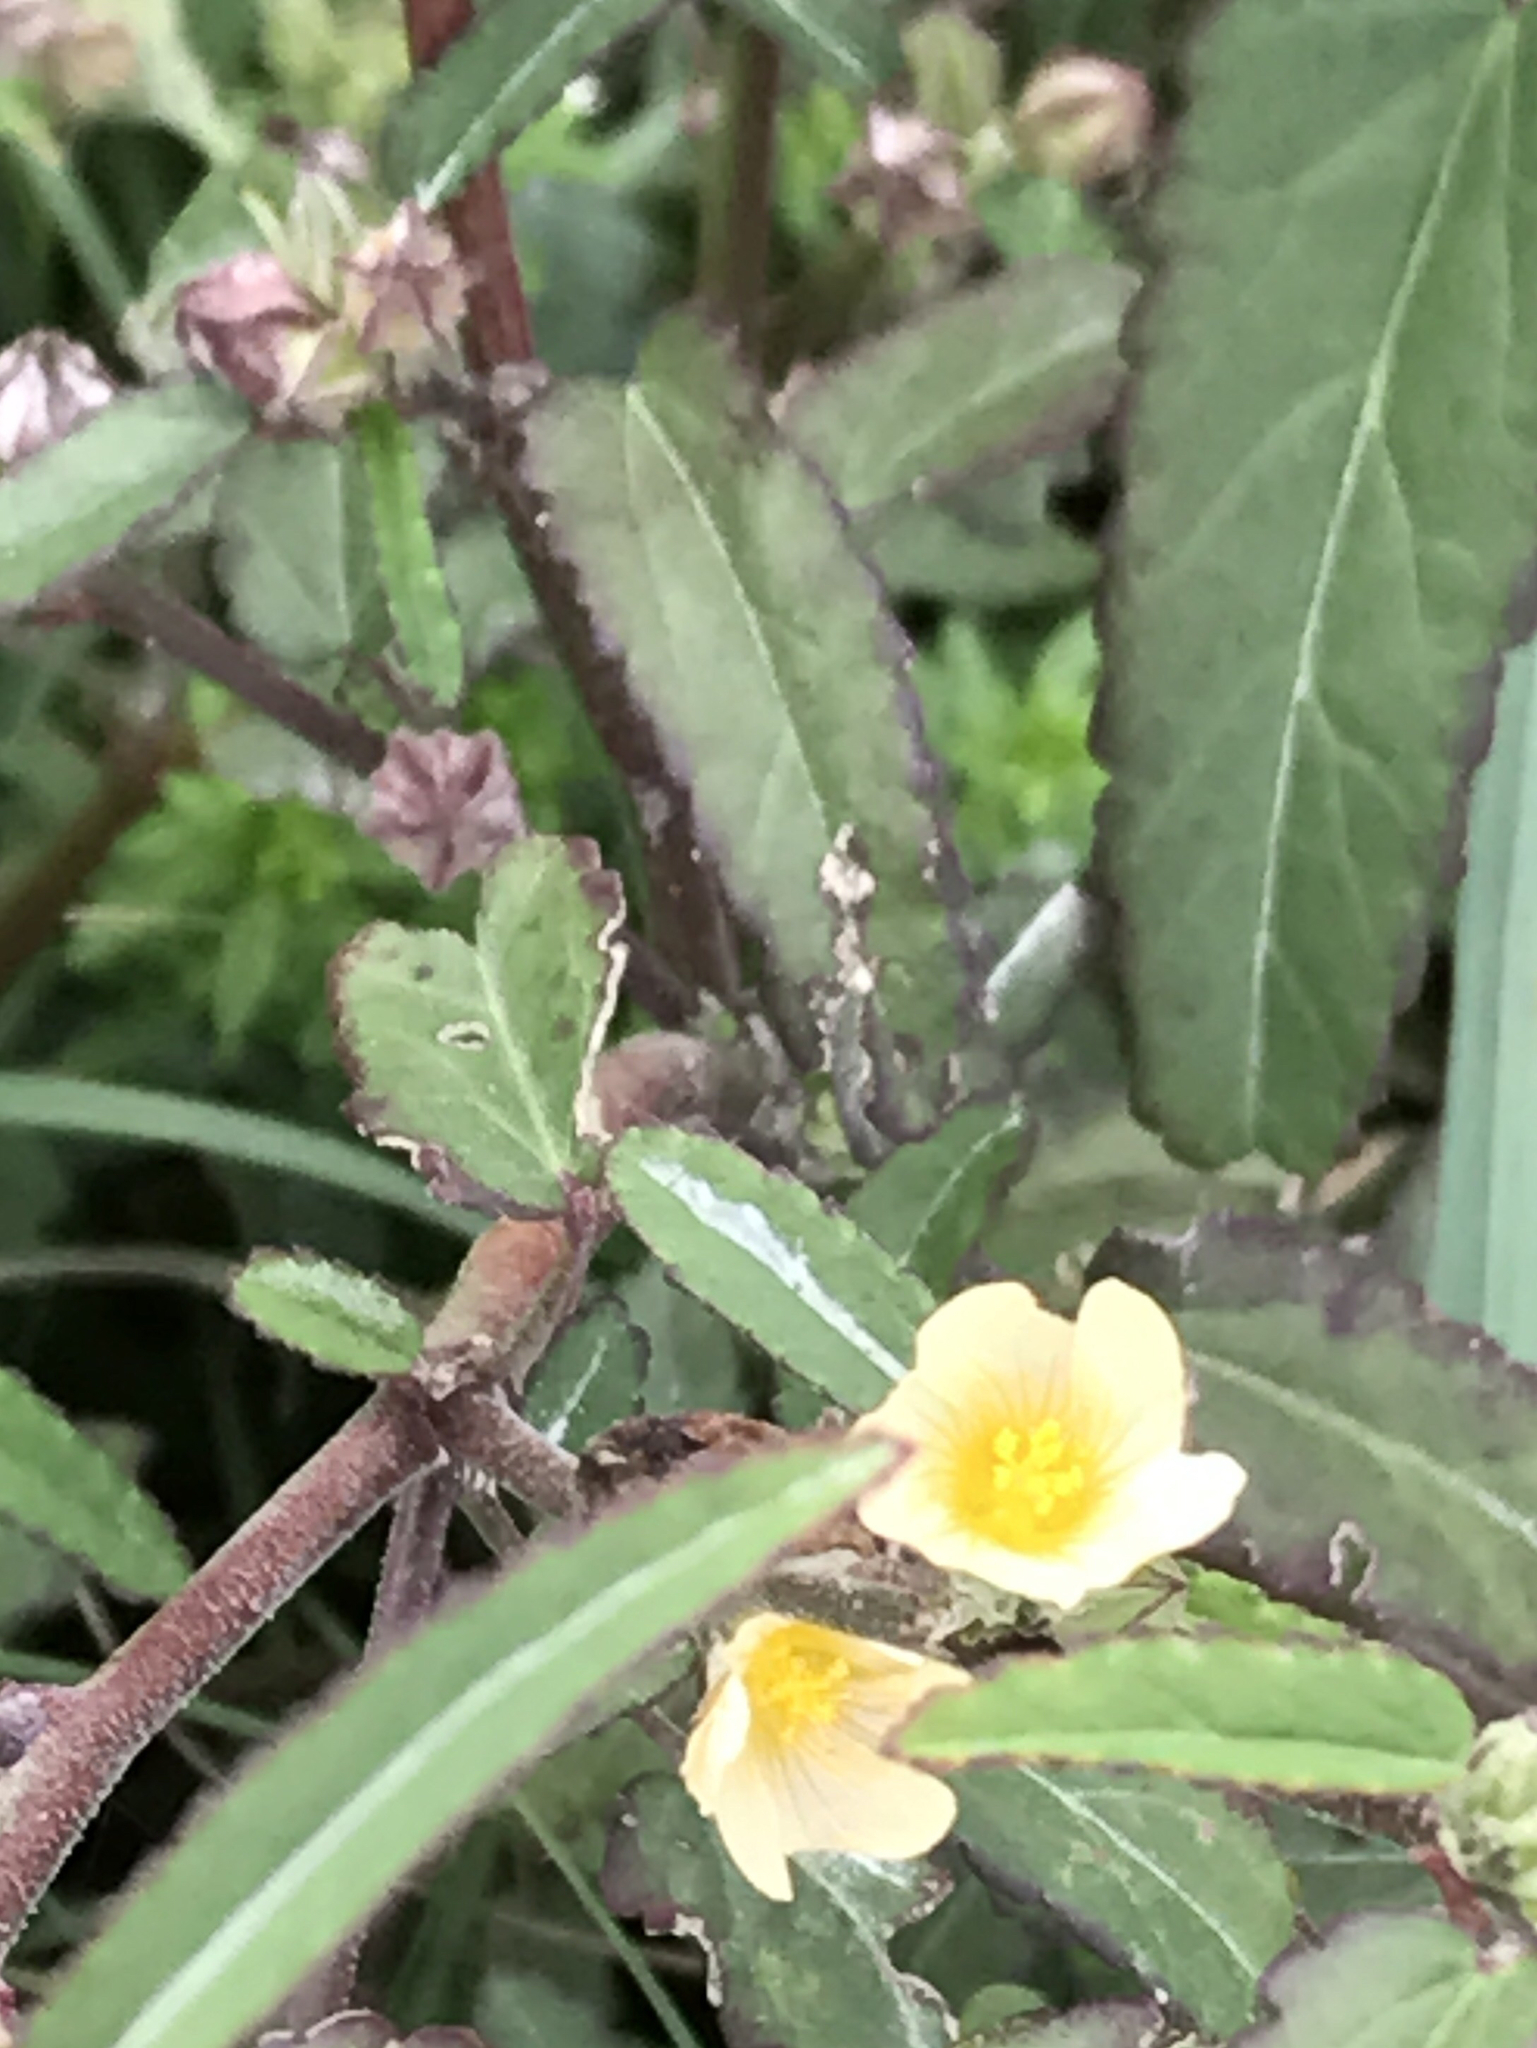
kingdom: Plantae
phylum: Tracheophyta
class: Magnoliopsida
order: Malvales
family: Malvaceae
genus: Sida
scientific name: Sida spinosa
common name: Prickly fanpetals
